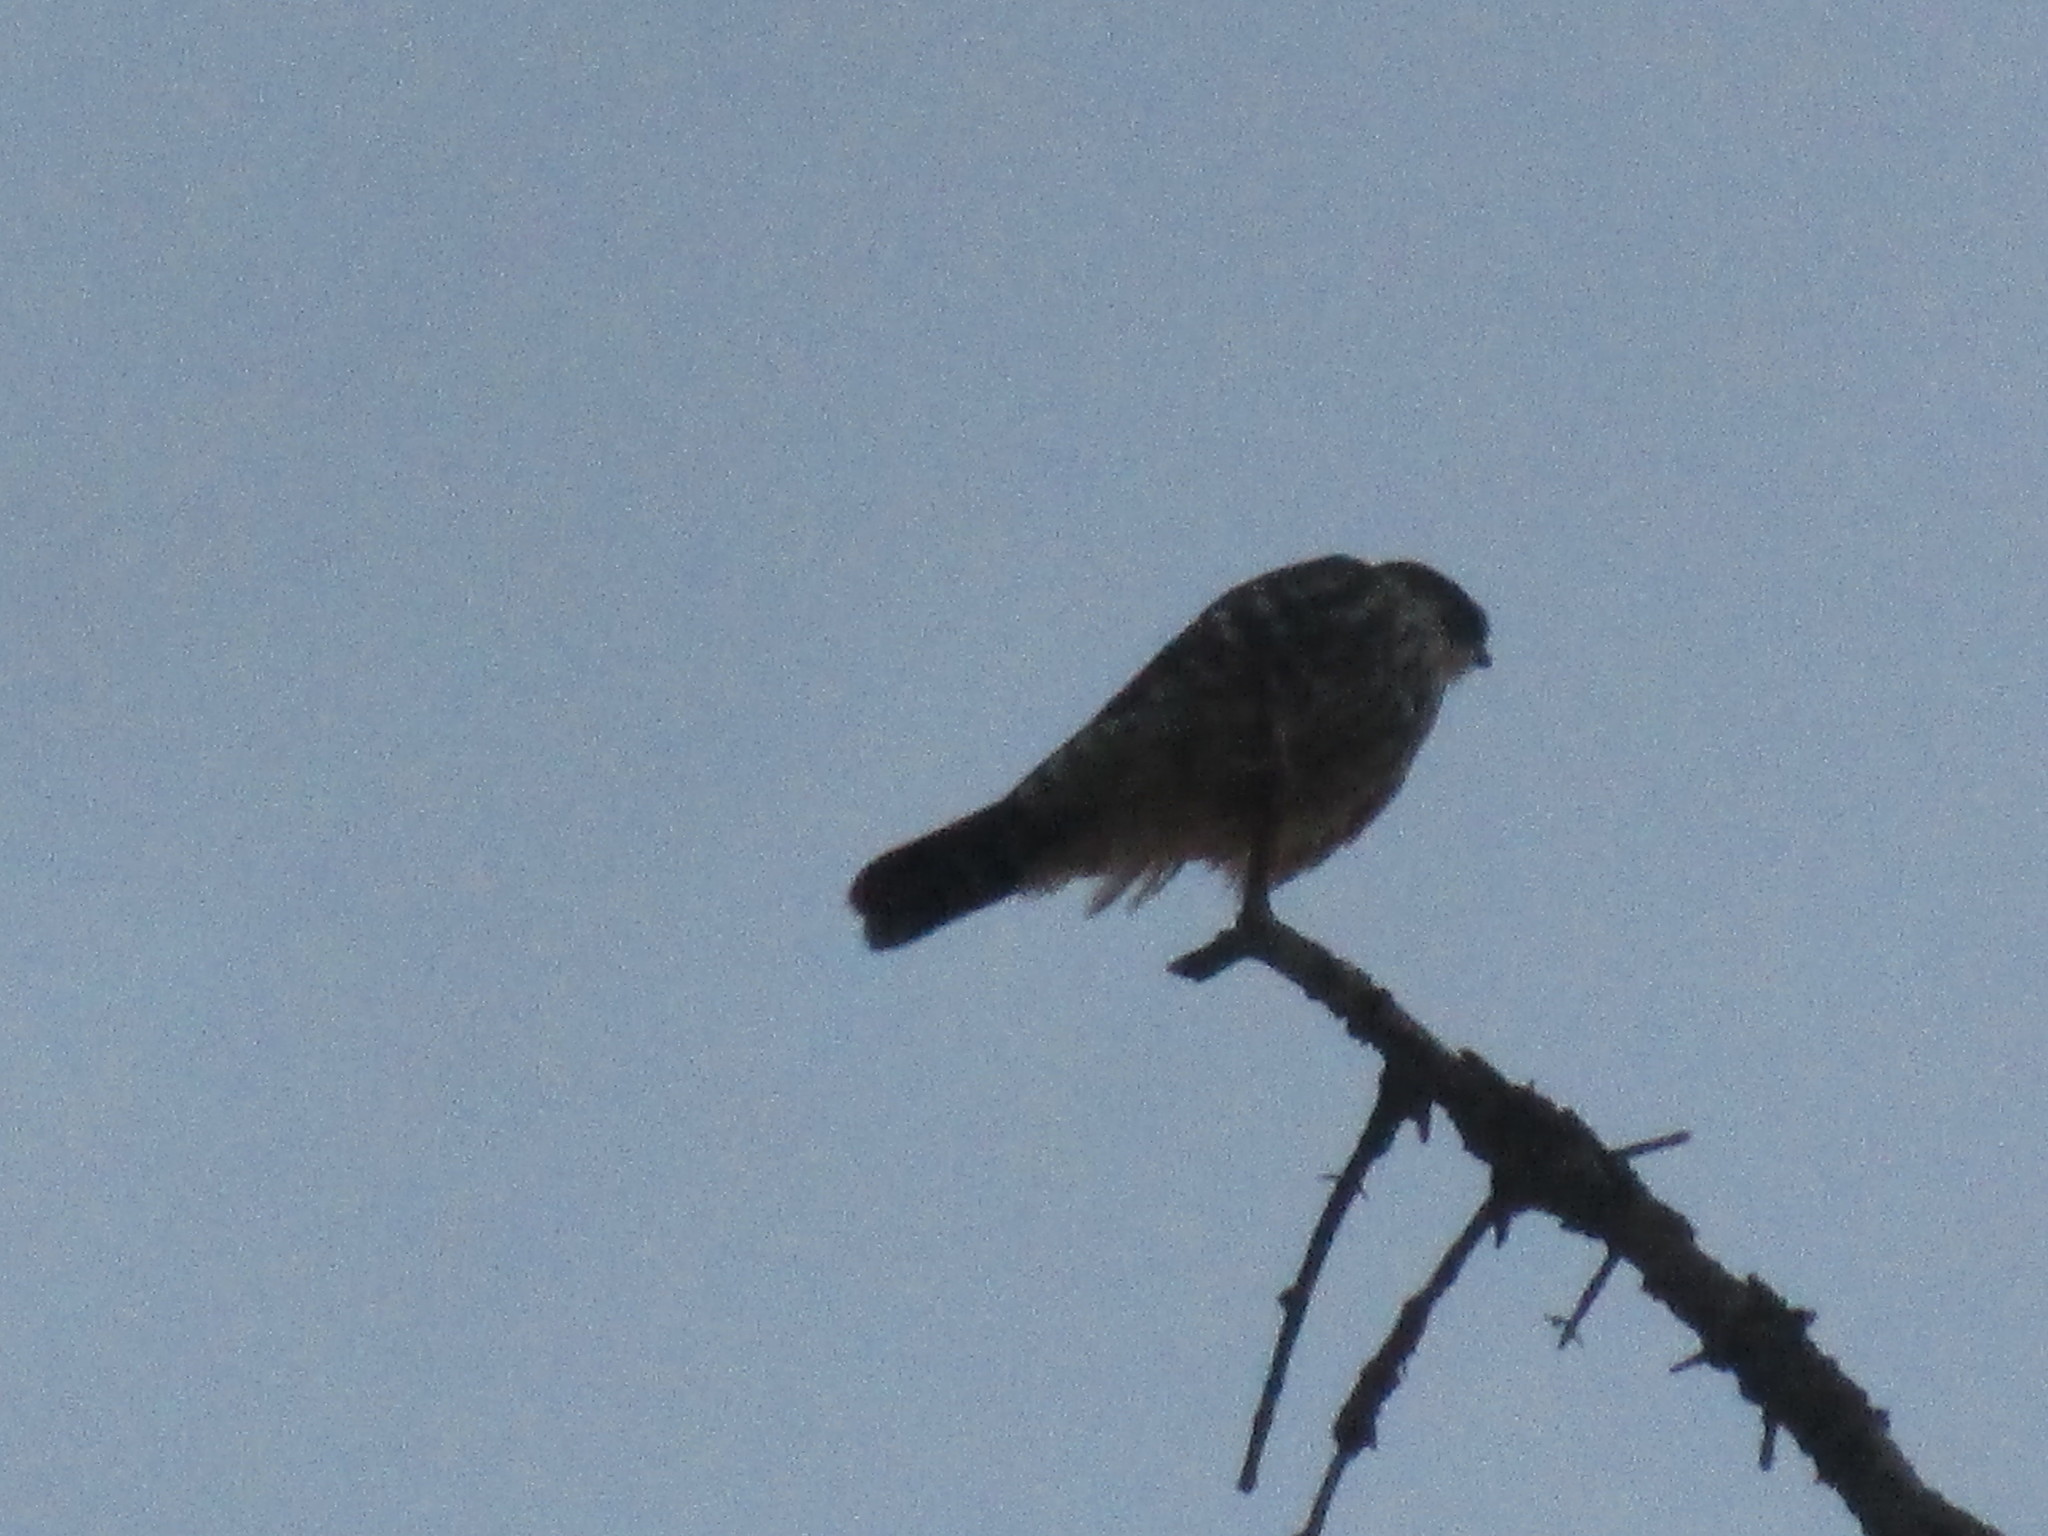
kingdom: Animalia
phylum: Chordata
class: Aves
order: Falconiformes
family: Falconidae
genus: Falco
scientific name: Falco columbarius
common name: Merlin
